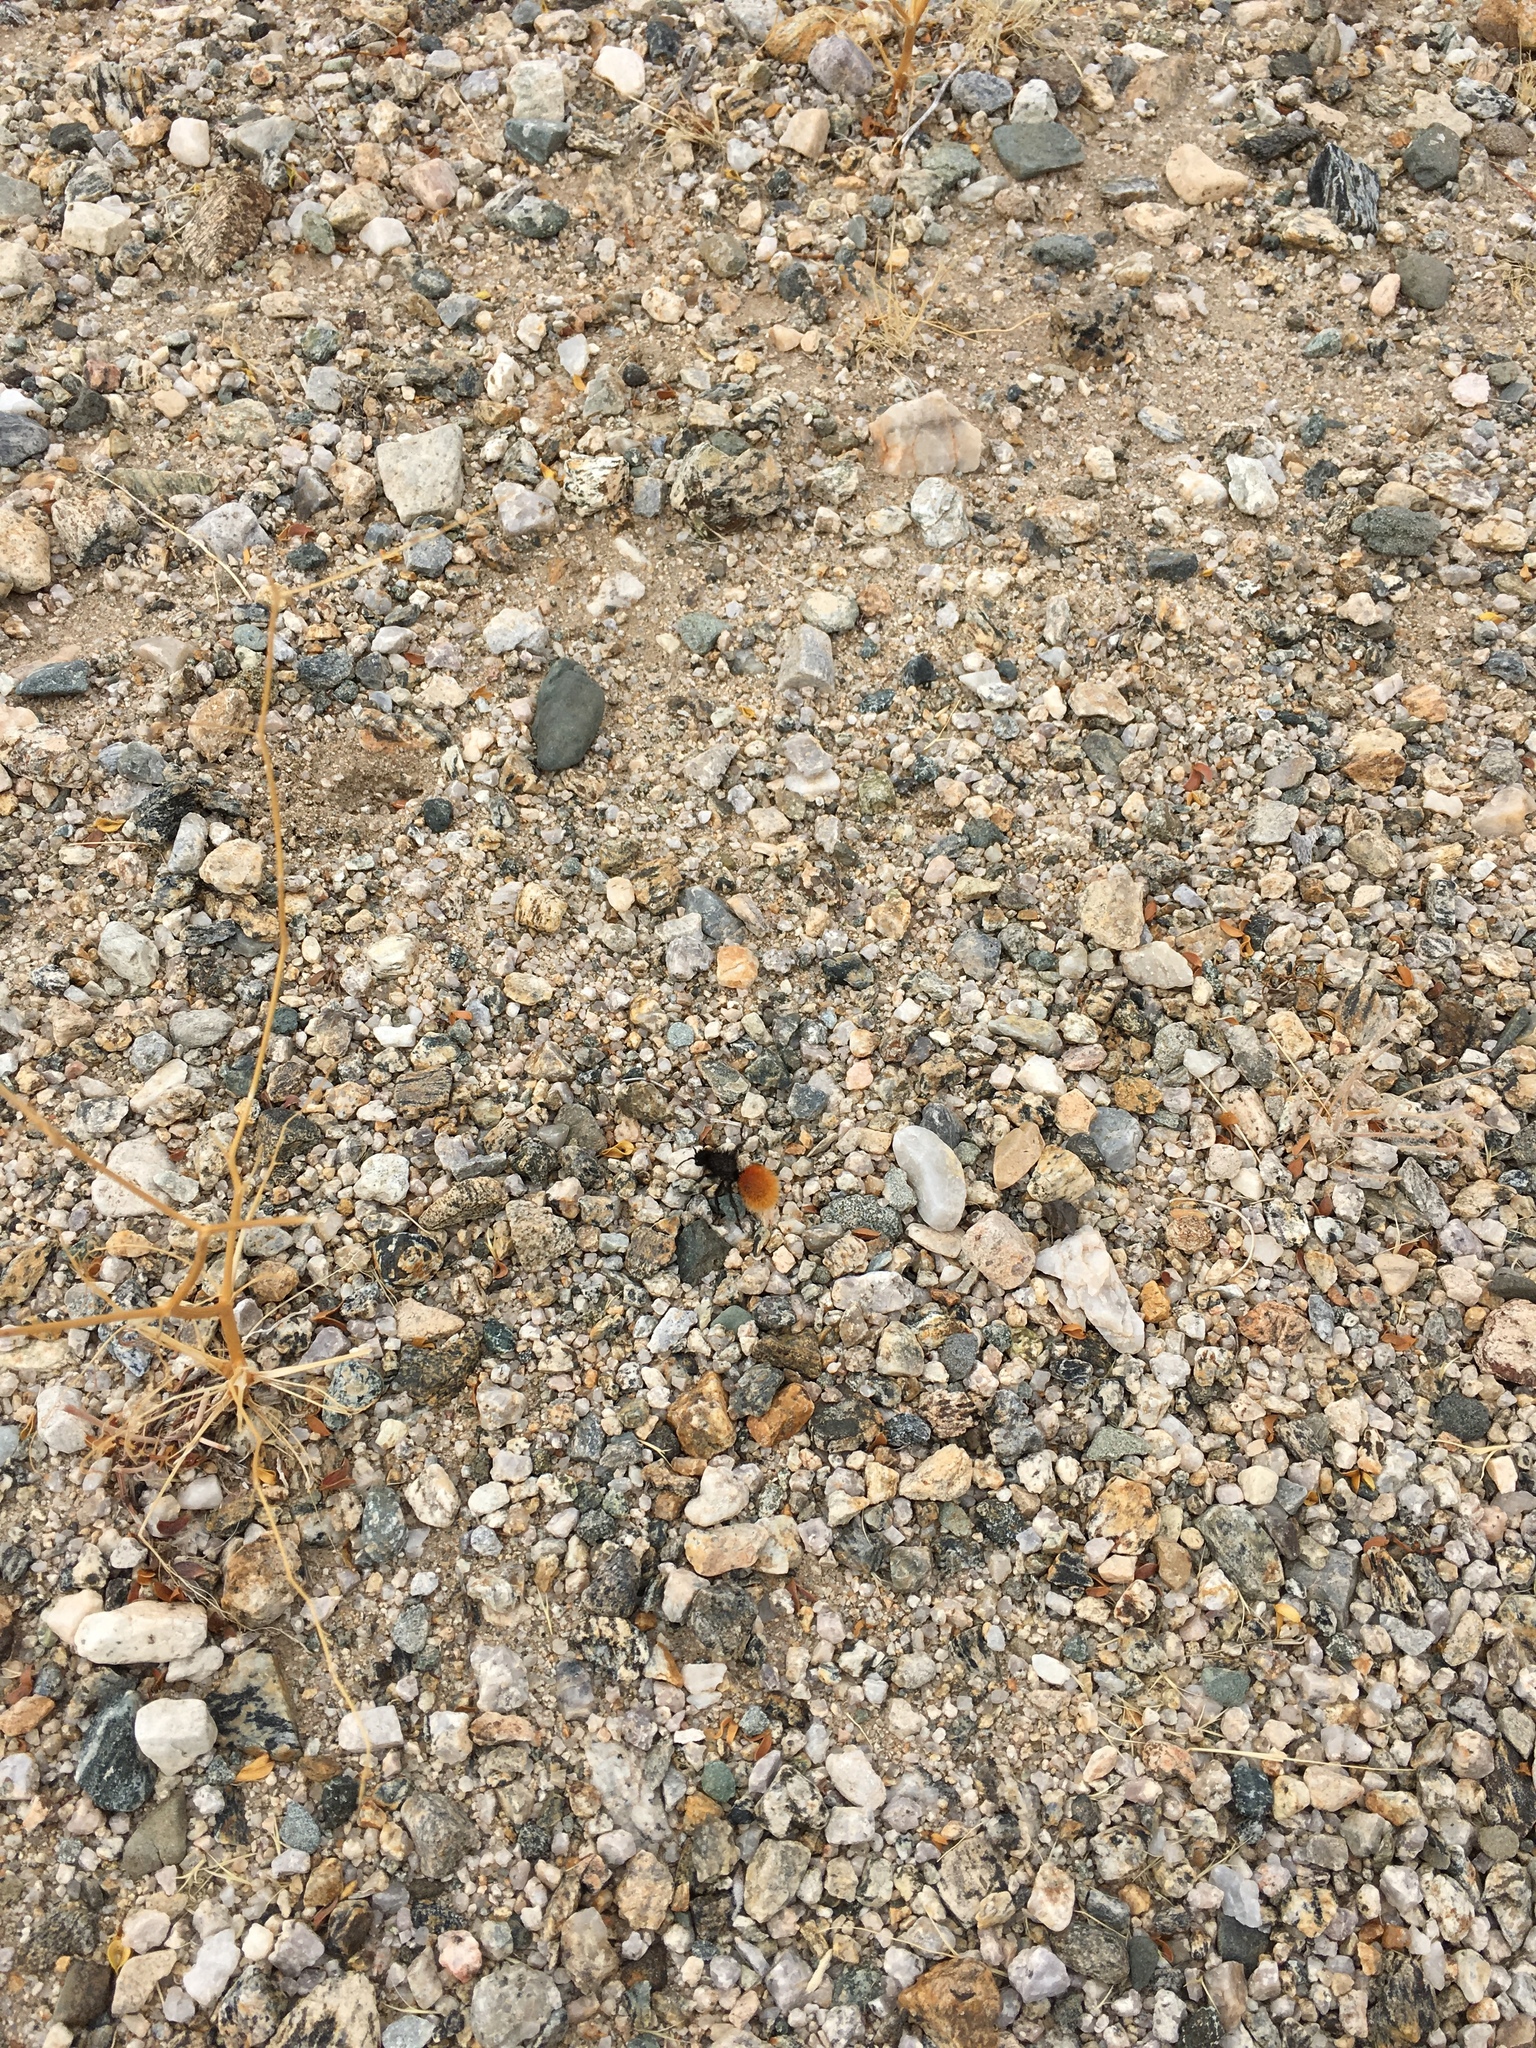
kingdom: Animalia
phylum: Arthropoda
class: Insecta
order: Hymenoptera
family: Mutillidae
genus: Dasymutilla
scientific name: Dasymutilla magnifica
